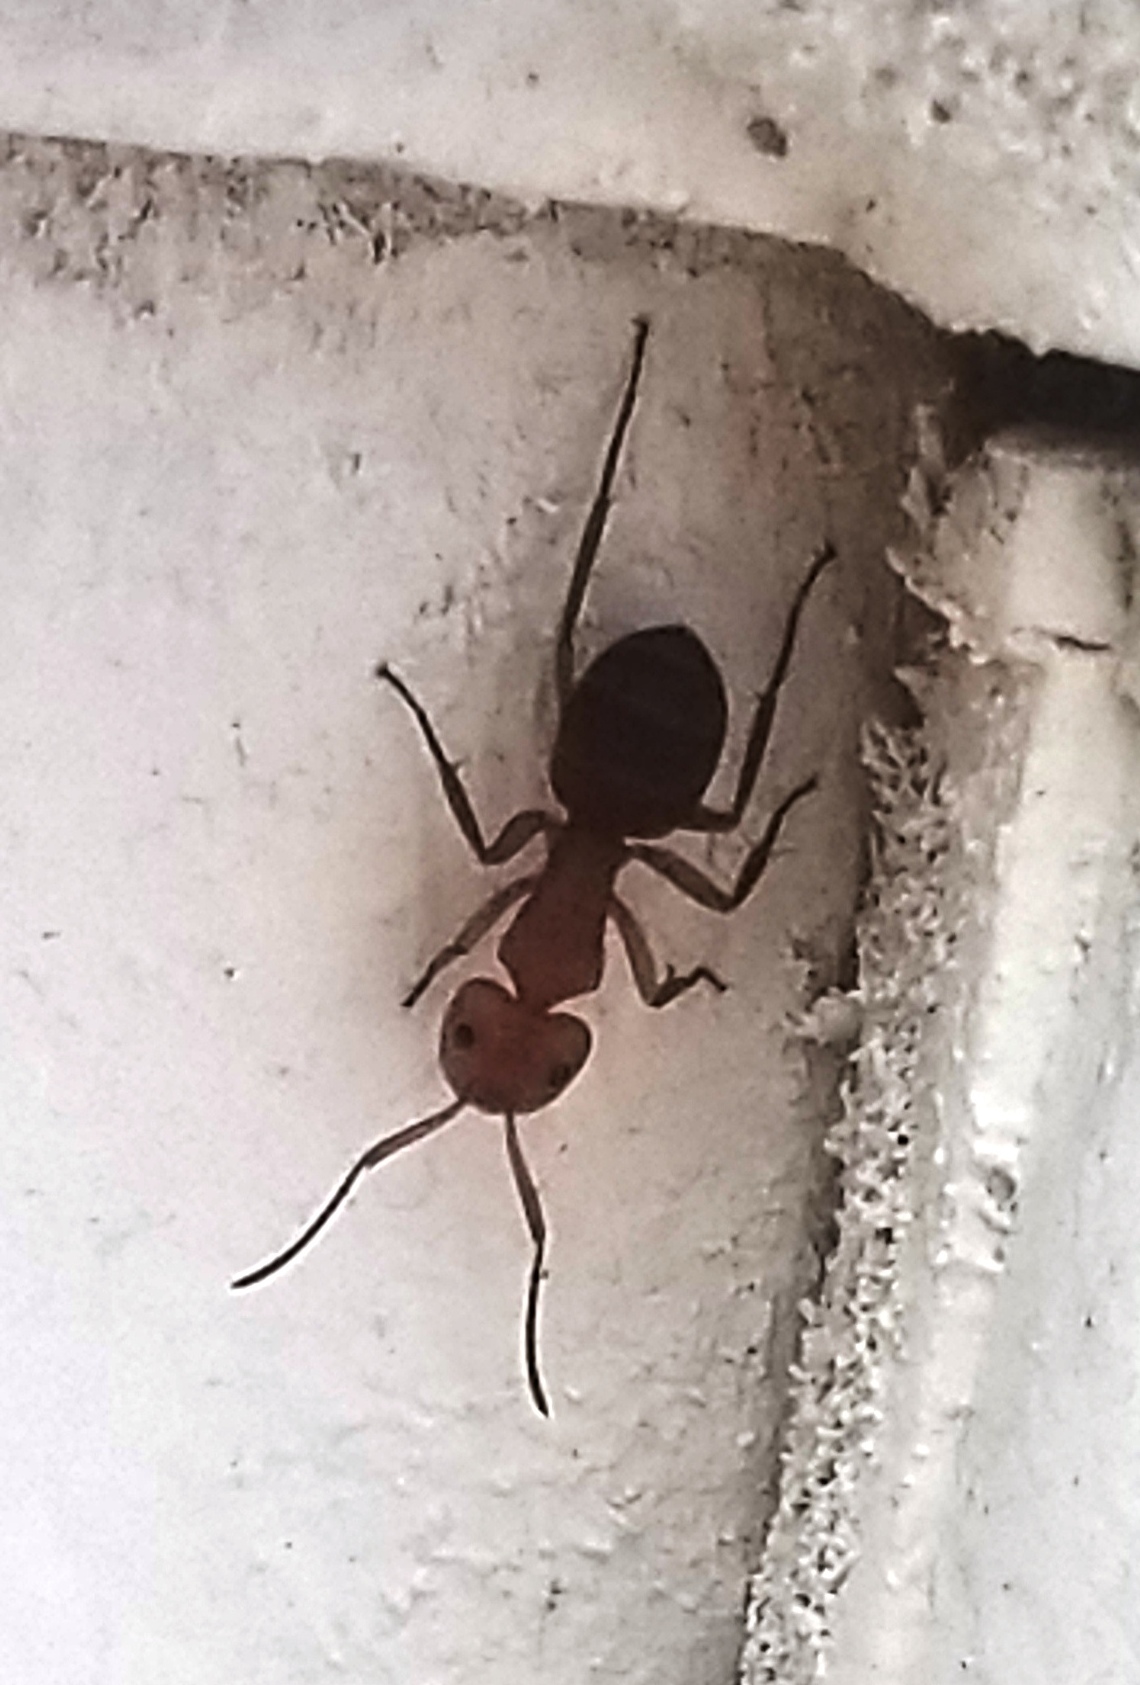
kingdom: Animalia
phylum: Arthropoda
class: Insecta
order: Hymenoptera
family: Formicidae
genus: Camponotus
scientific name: Camponotus rectangularis
